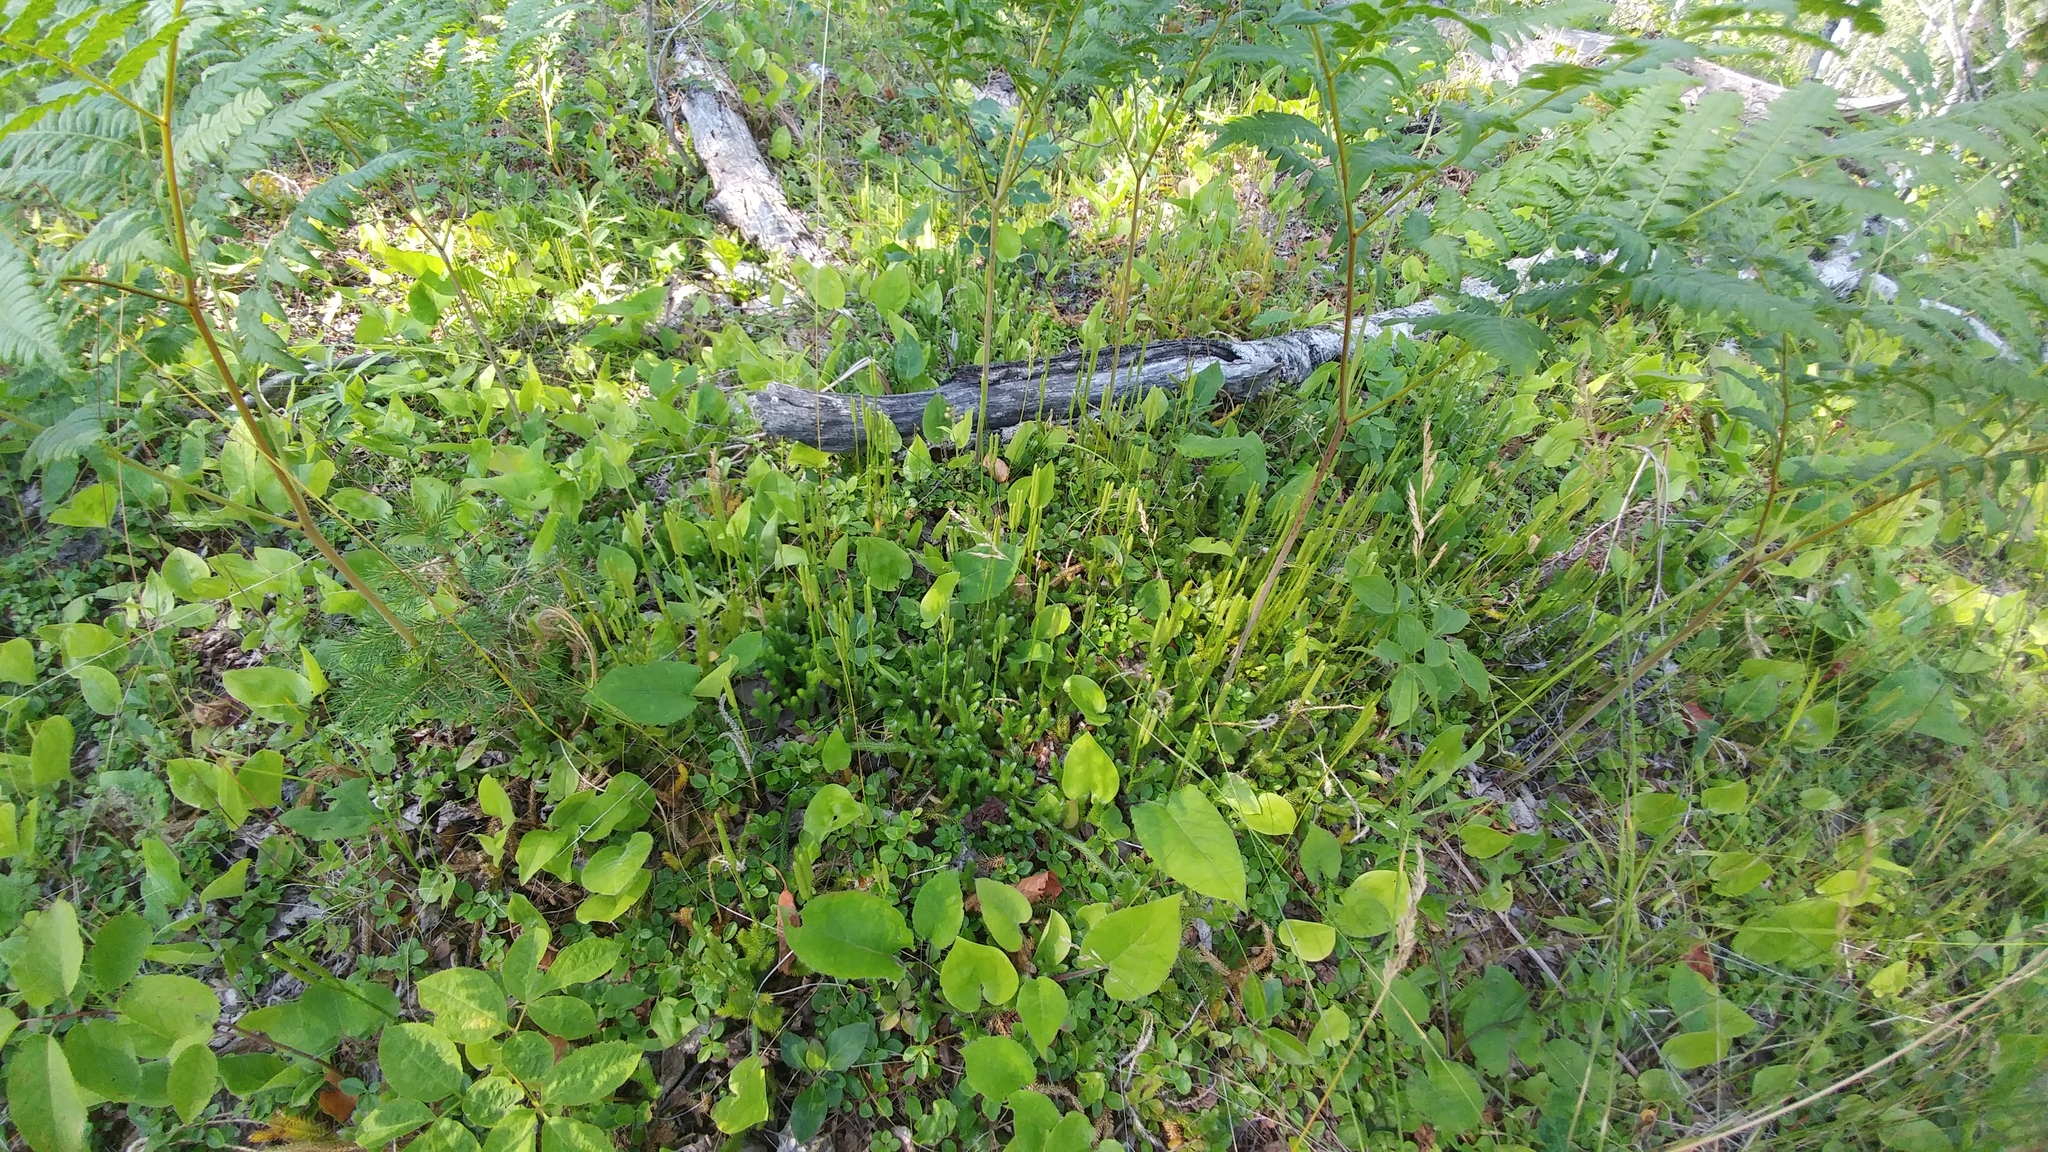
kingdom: Plantae
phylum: Tracheophyta
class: Lycopodiopsida
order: Lycopodiales
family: Lycopodiaceae
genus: Lycopodium
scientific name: Lycopodium clavatum
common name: Stag's-horn clubmoss
